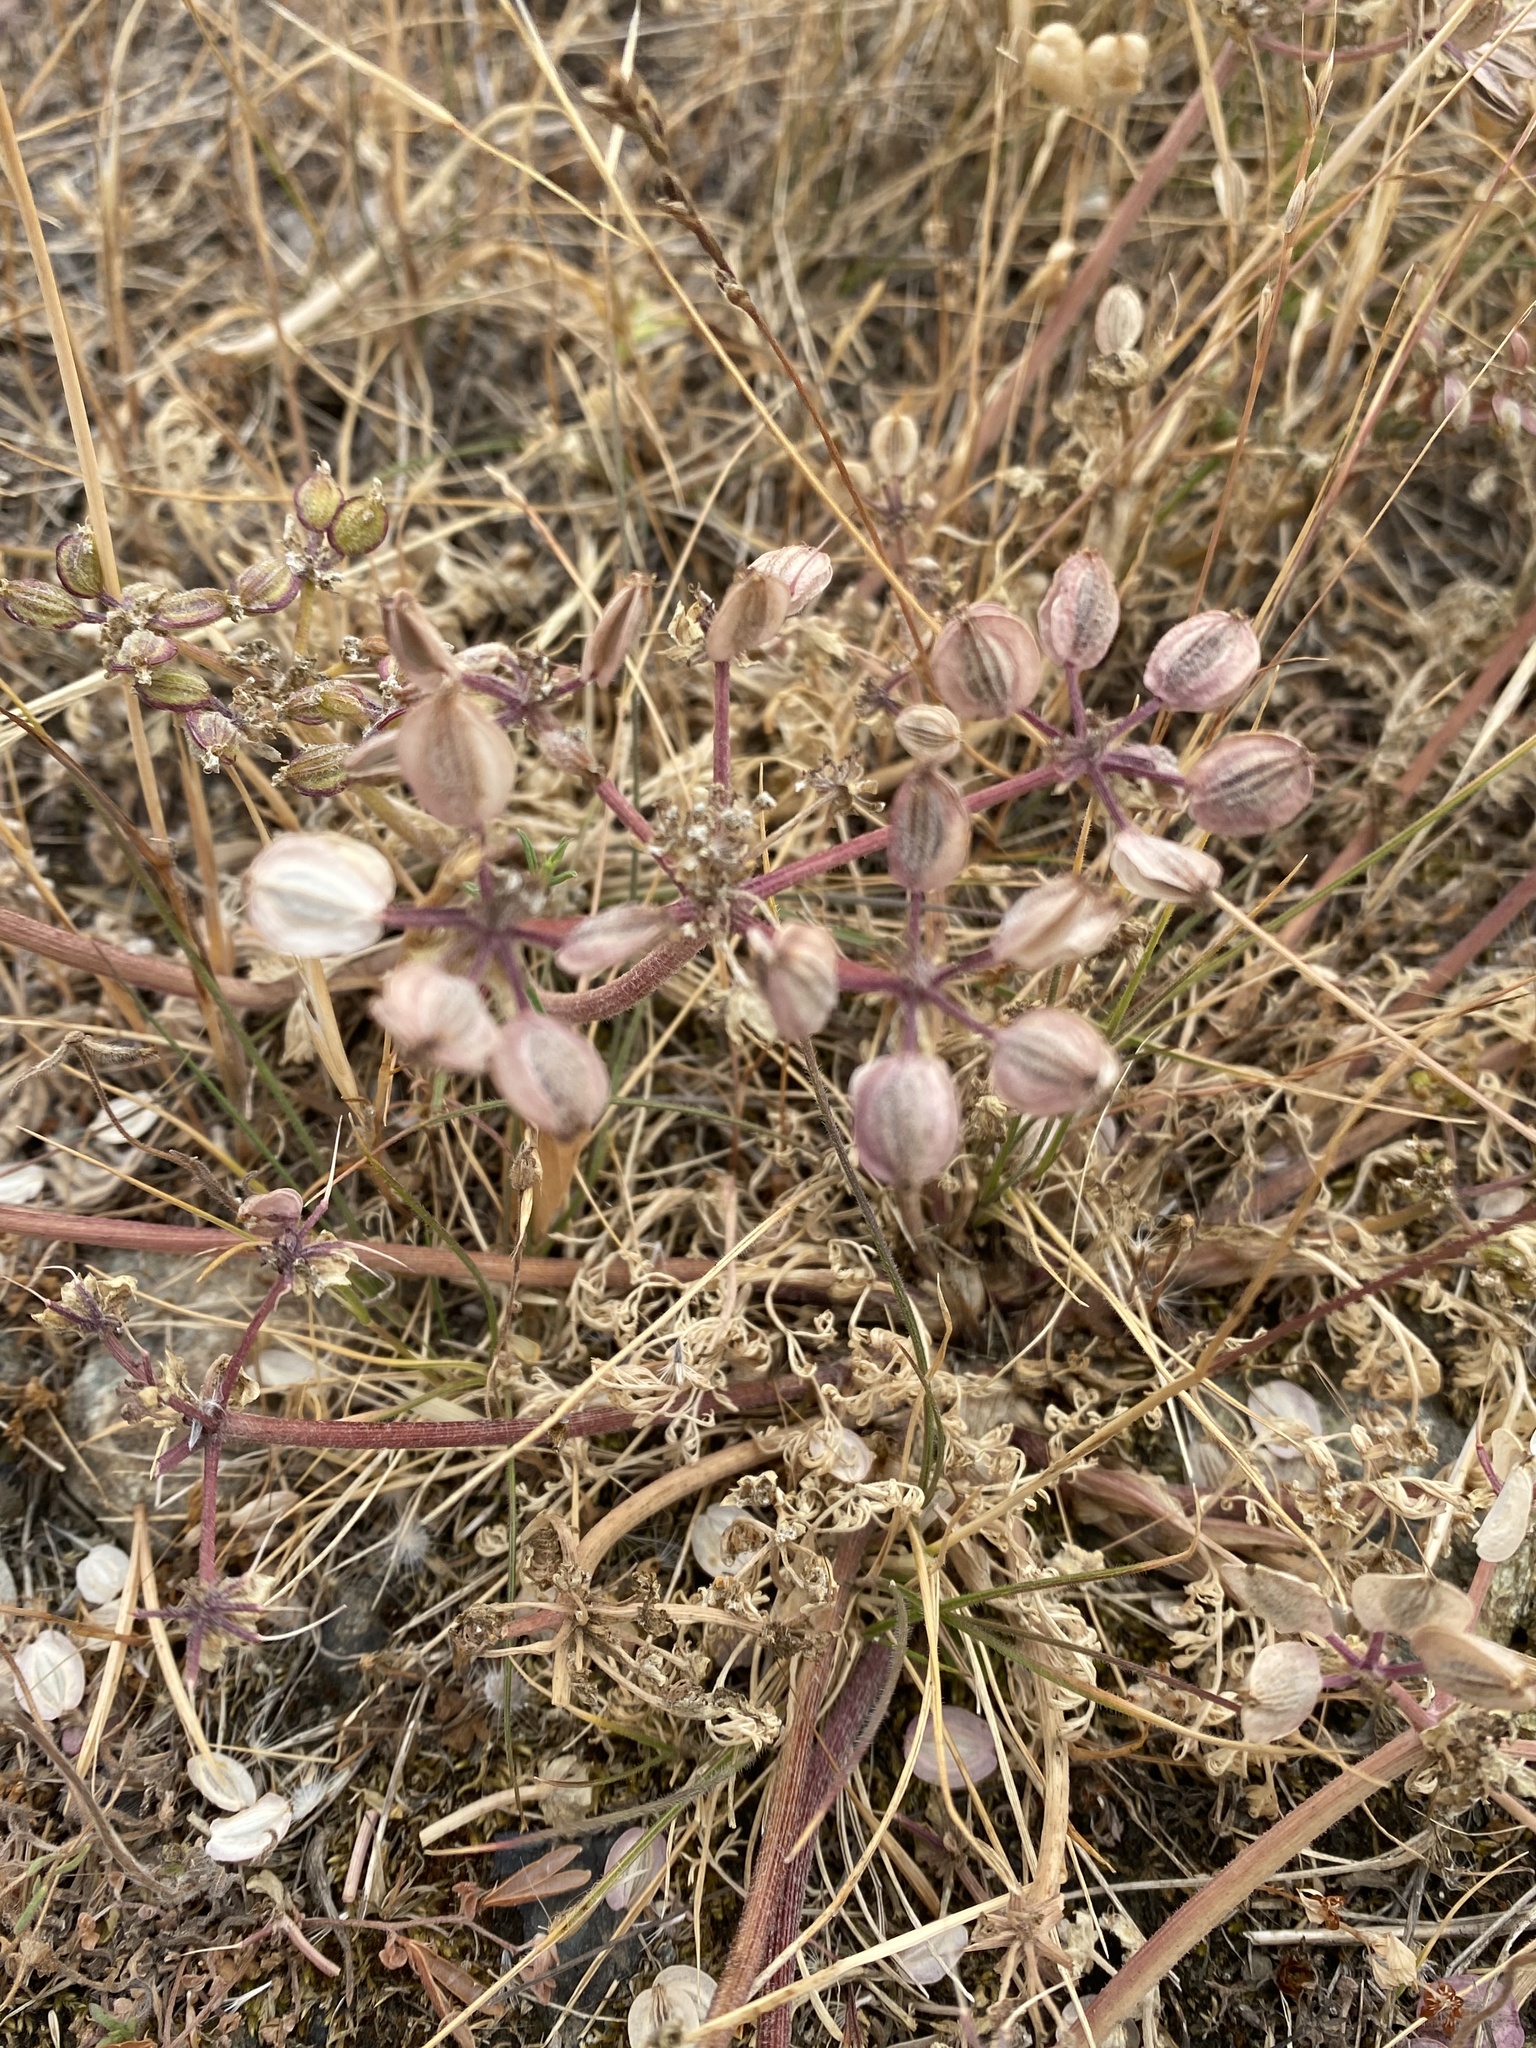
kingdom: Plantae
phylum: Tracheophyta
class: Magnoliopsida
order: Apiales
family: Apiaceae
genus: Lomatium
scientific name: Lomatium dasycarpum
